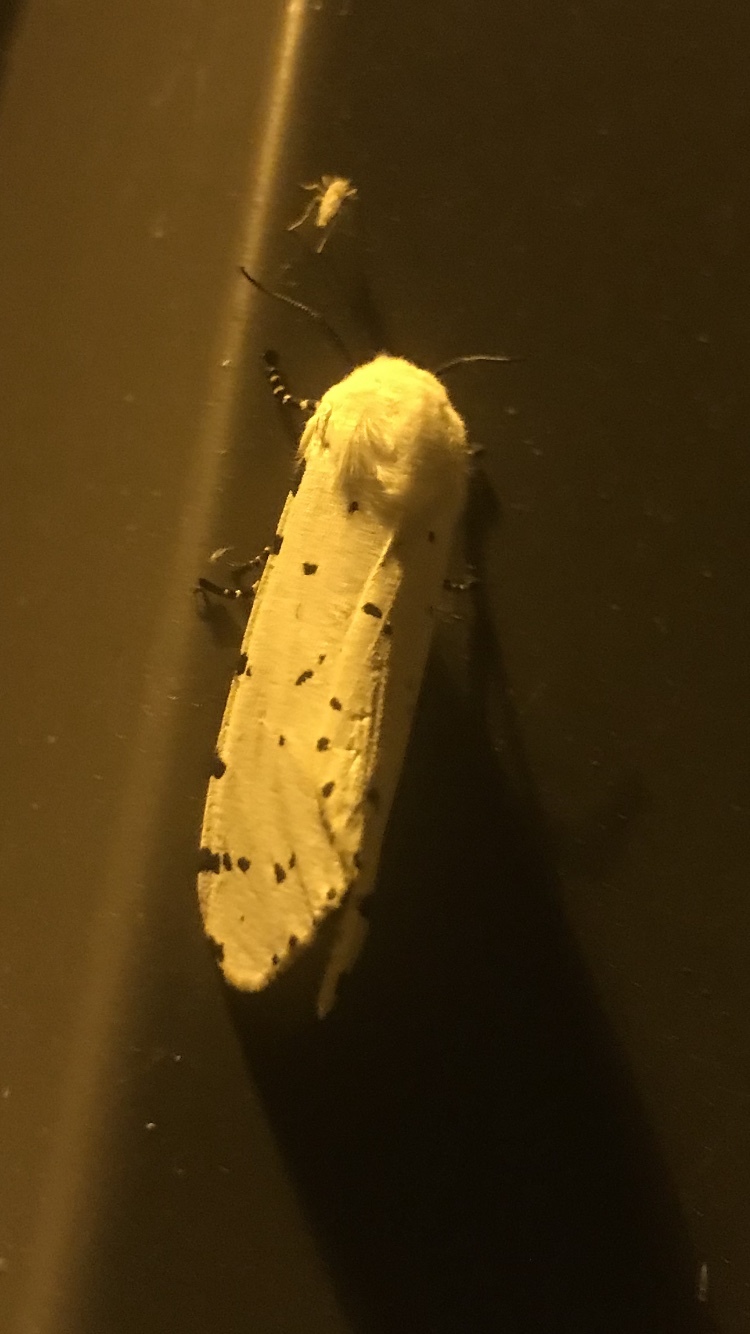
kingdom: Animalia
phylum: Arthropoda
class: Insecta
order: Lepidoptera
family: Erebidae
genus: Estigmene
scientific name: Estigmene acrea
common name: Salt marsh moth
